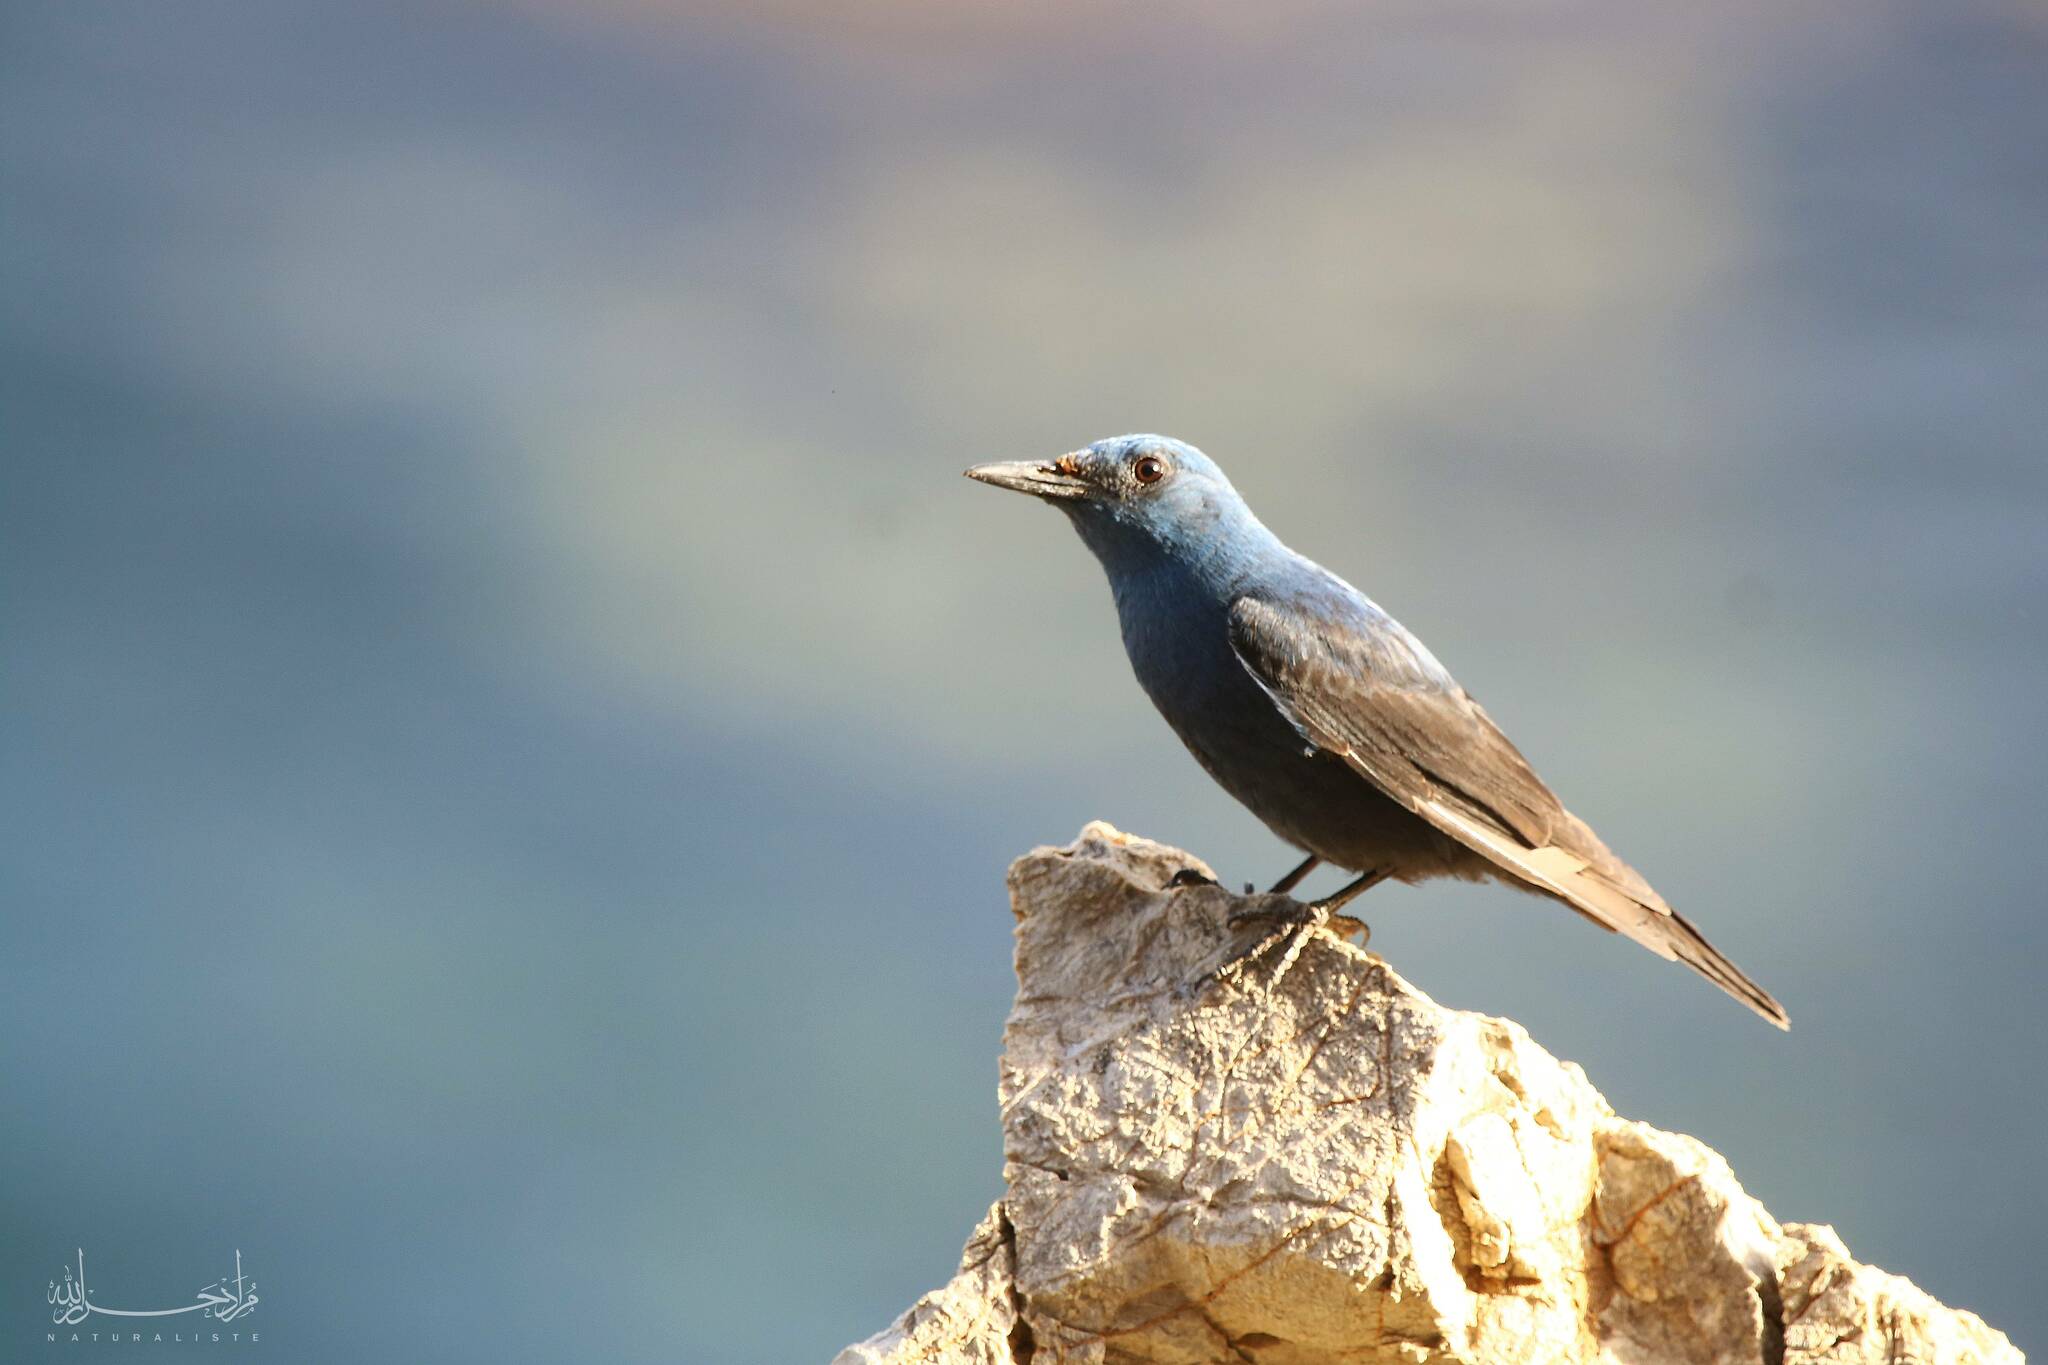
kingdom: Animalia
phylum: Chordata
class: Aves
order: Passeriformes
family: Muscicapidae
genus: Monticola
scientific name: Monticola solitarius
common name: Blue rock thrush
